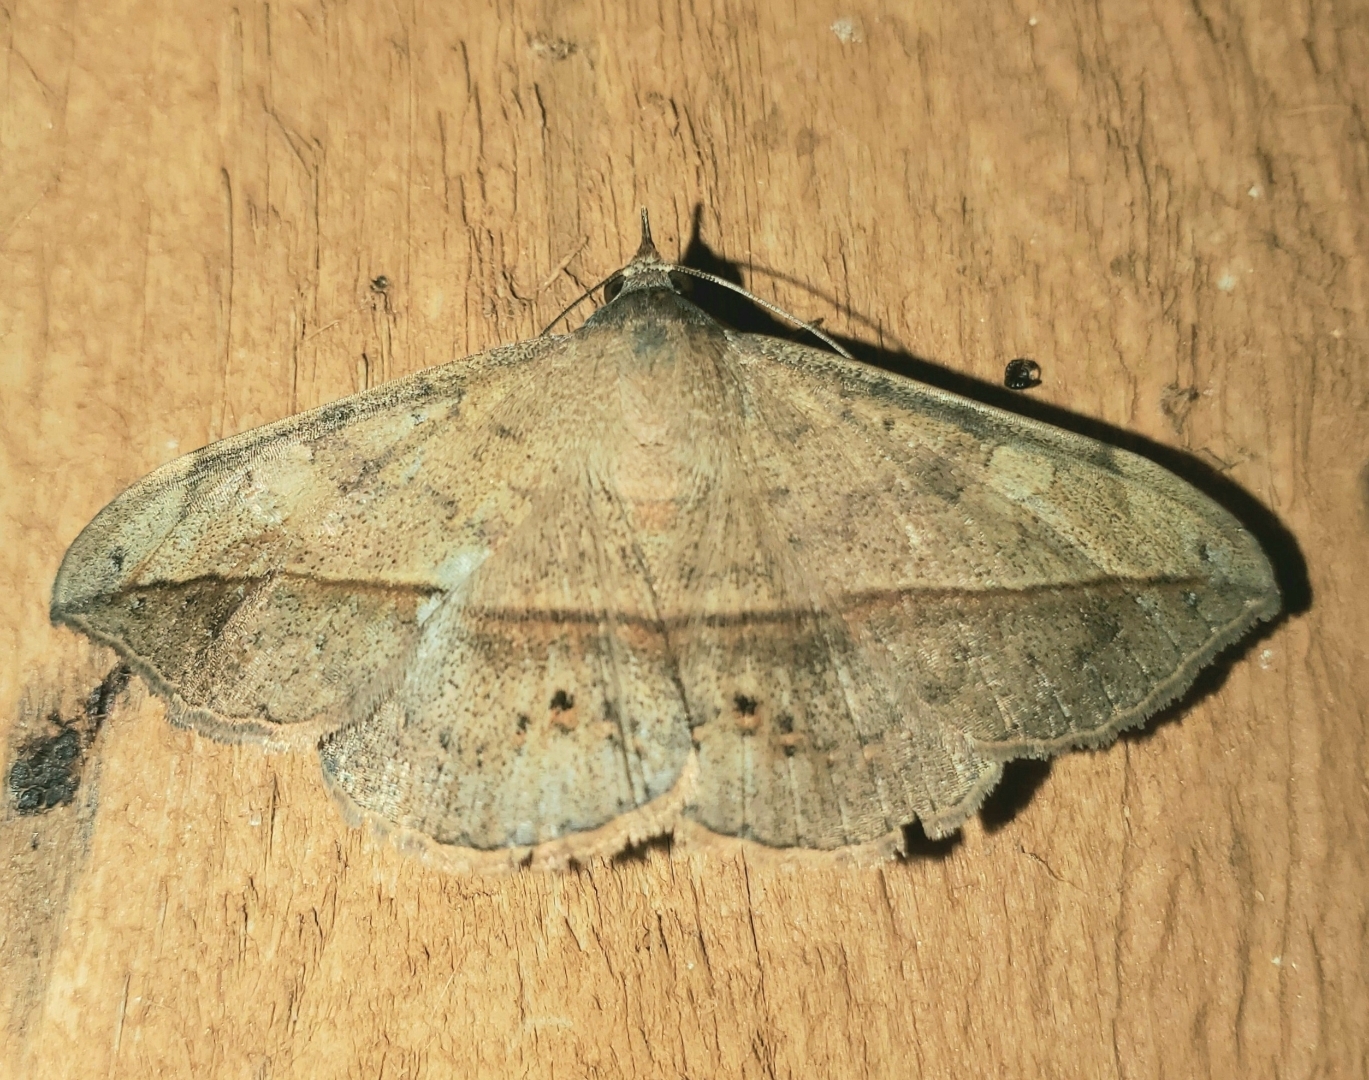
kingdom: Animalia
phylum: Arthropoda
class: Insecta
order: Lepidoptera
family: Erebidae
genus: Anticarsia
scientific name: Anticarsia gemmatalis
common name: Cutworm moth
